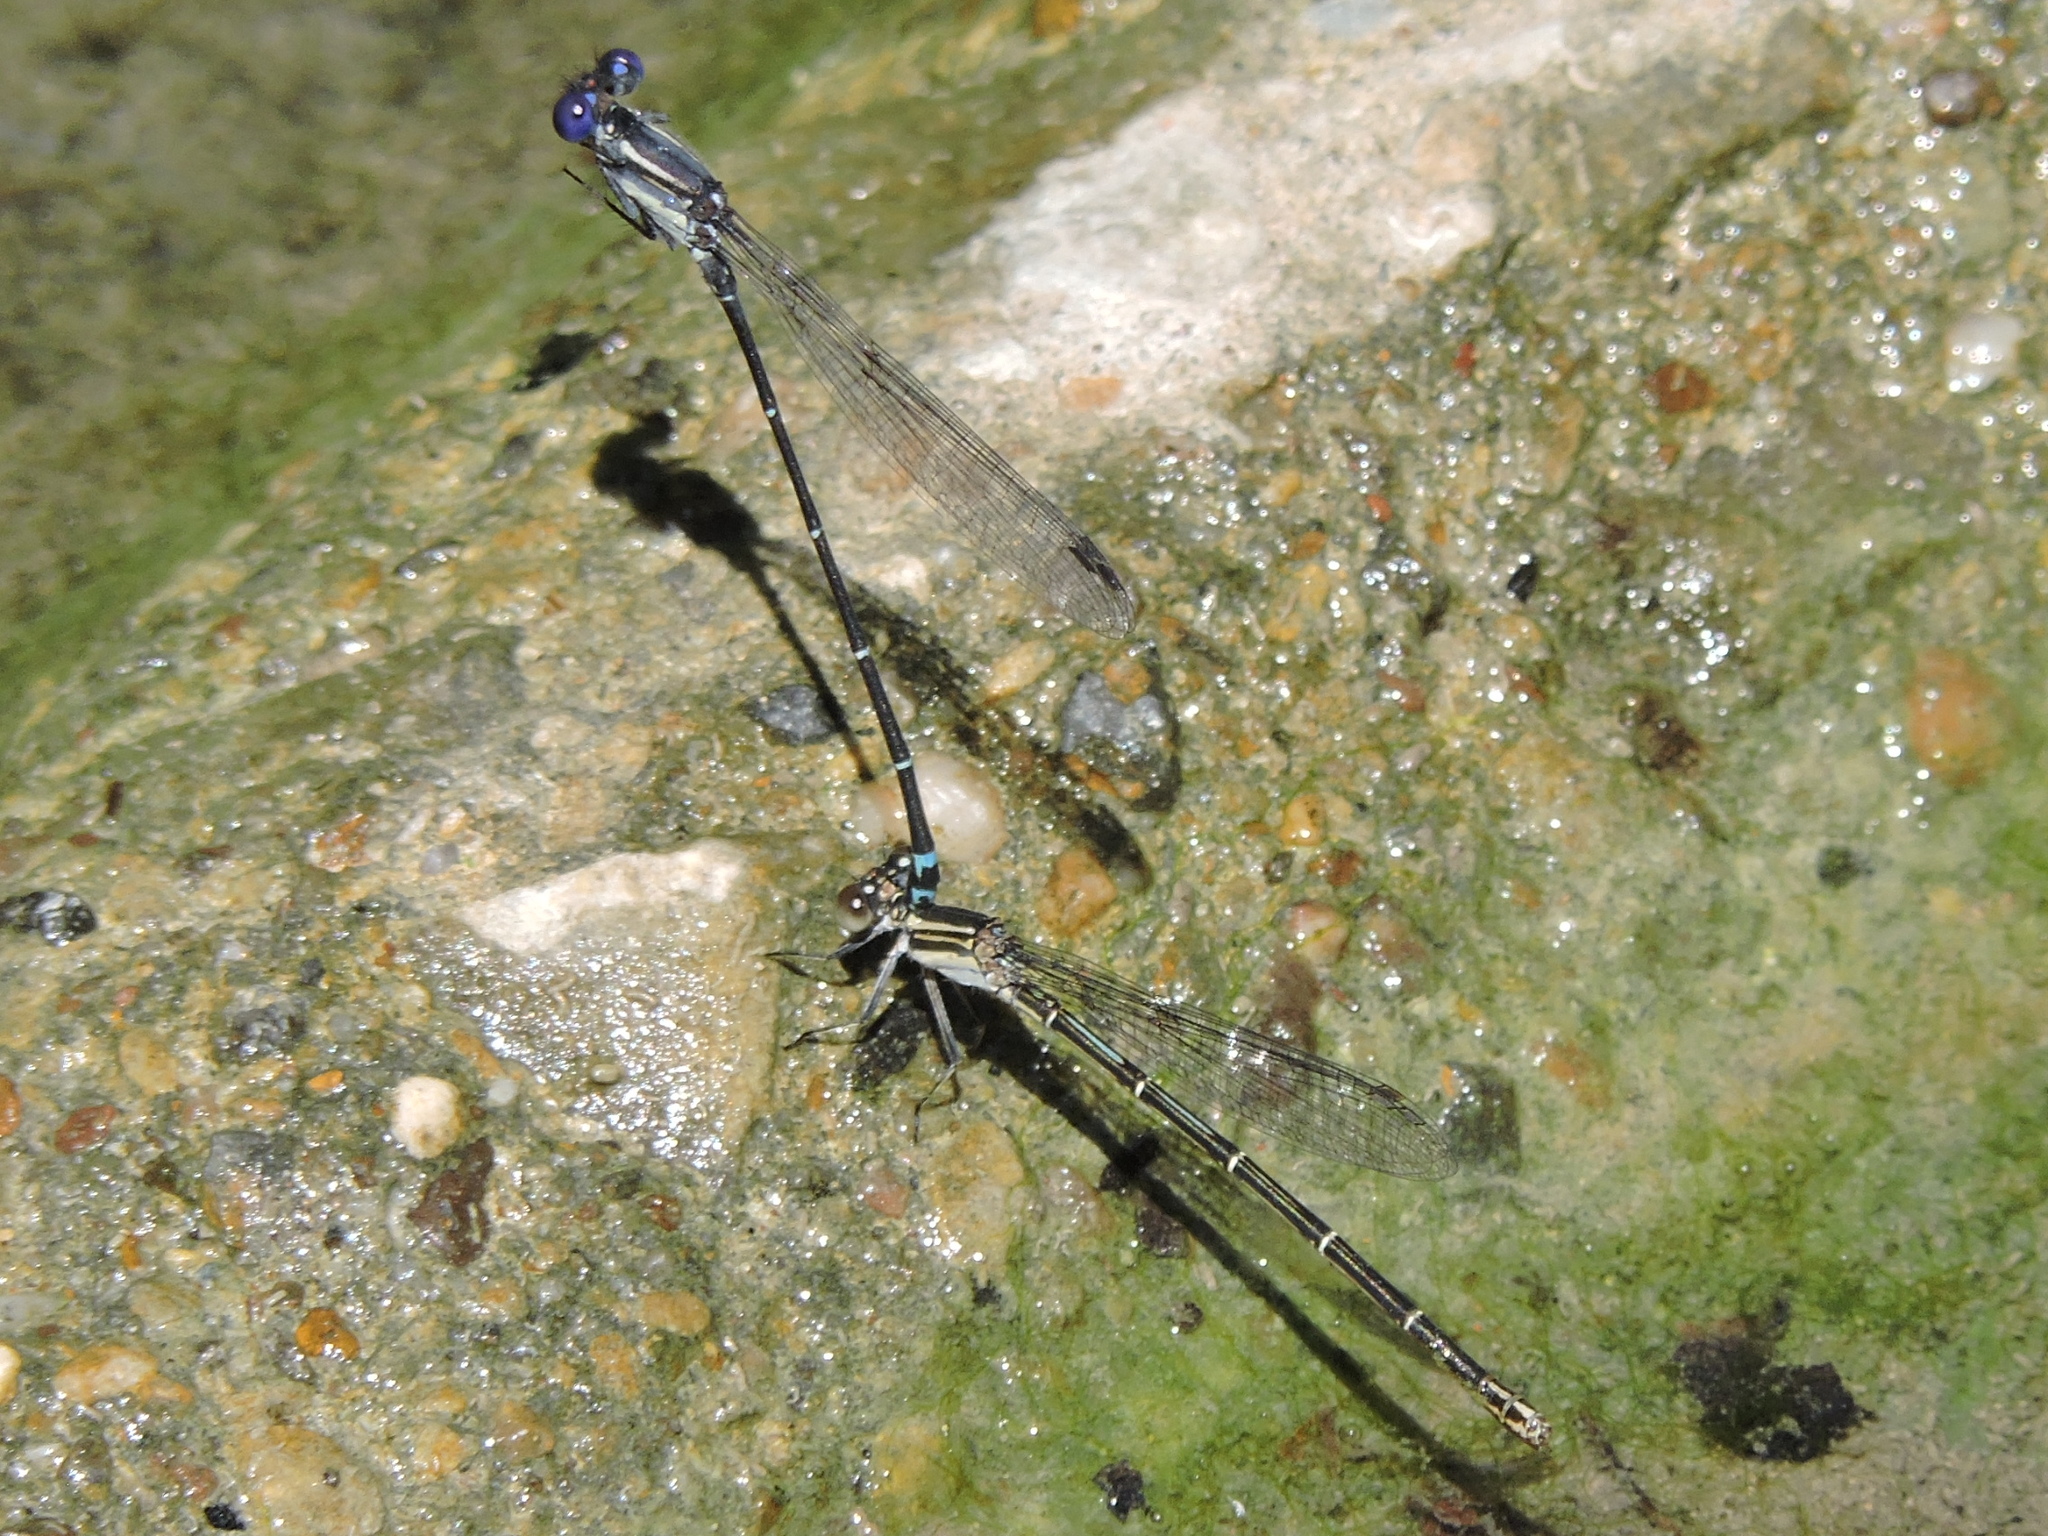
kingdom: Animalia
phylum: Arthropoda
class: Insecta
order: Odonata
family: Coenagrionidae
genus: Argia
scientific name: Argia translata
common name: Dusky dancer
